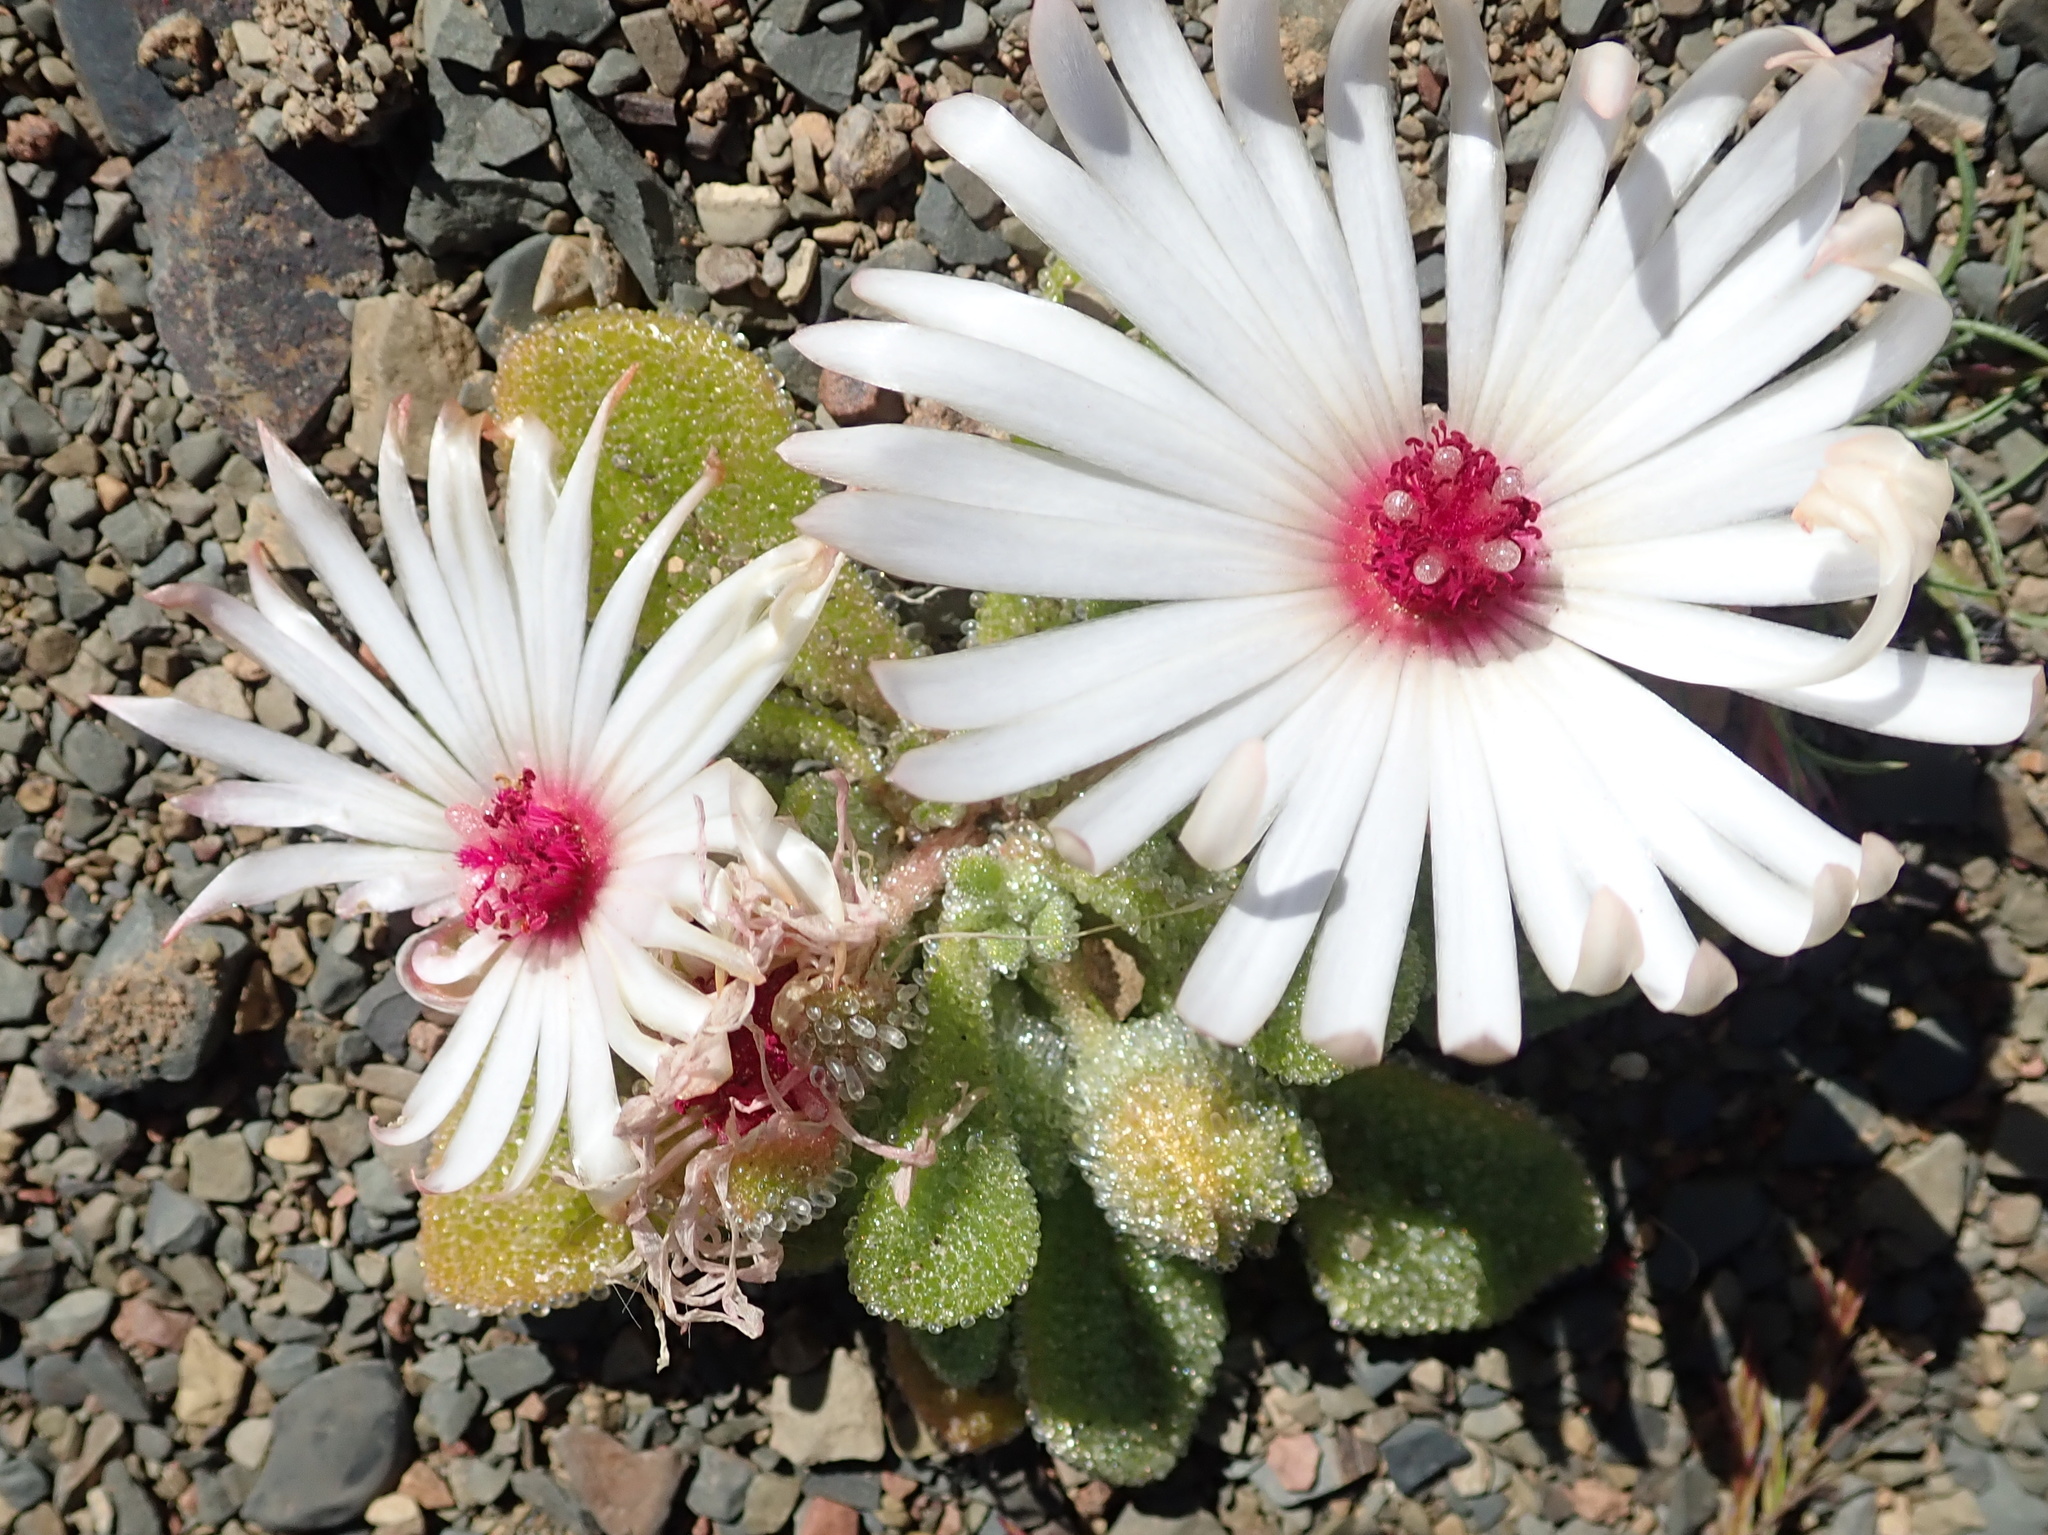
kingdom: Plantae
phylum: Tracheophyta
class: Magnoliopsida
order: Caryophyllales
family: Aizoaceae
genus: Cleretum
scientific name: Cleretum maughanii
